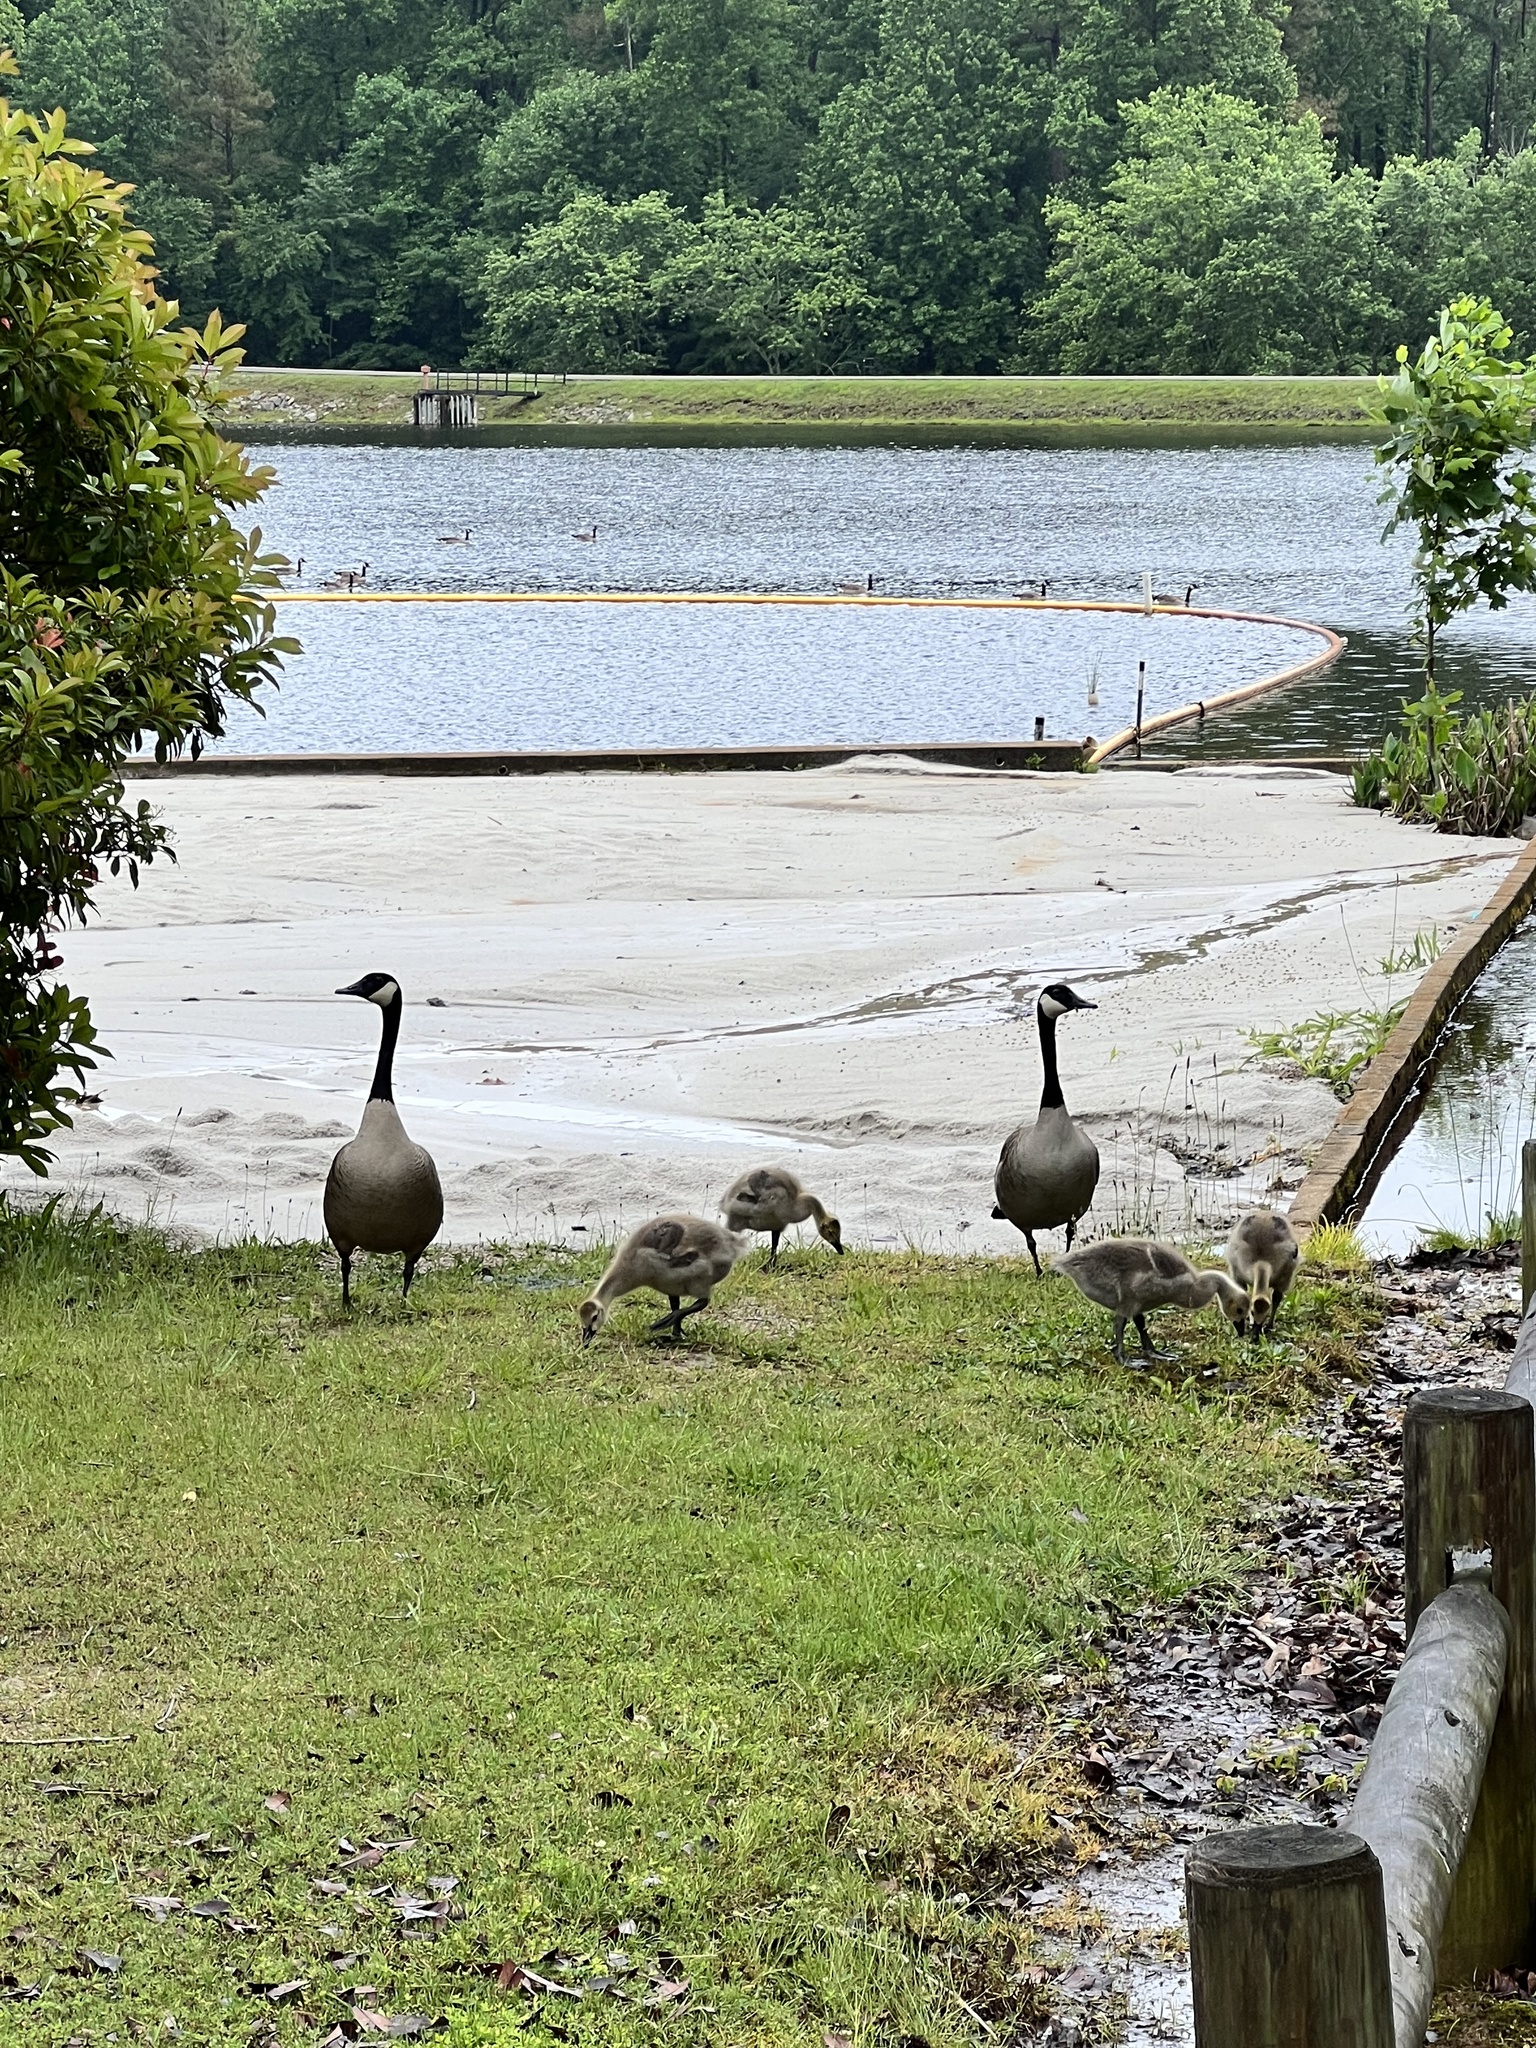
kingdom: Animalia
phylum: Chordata
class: Aves
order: Anseriformes
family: Anatidae
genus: Branta
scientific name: Branta canadensis
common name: Canada goose
